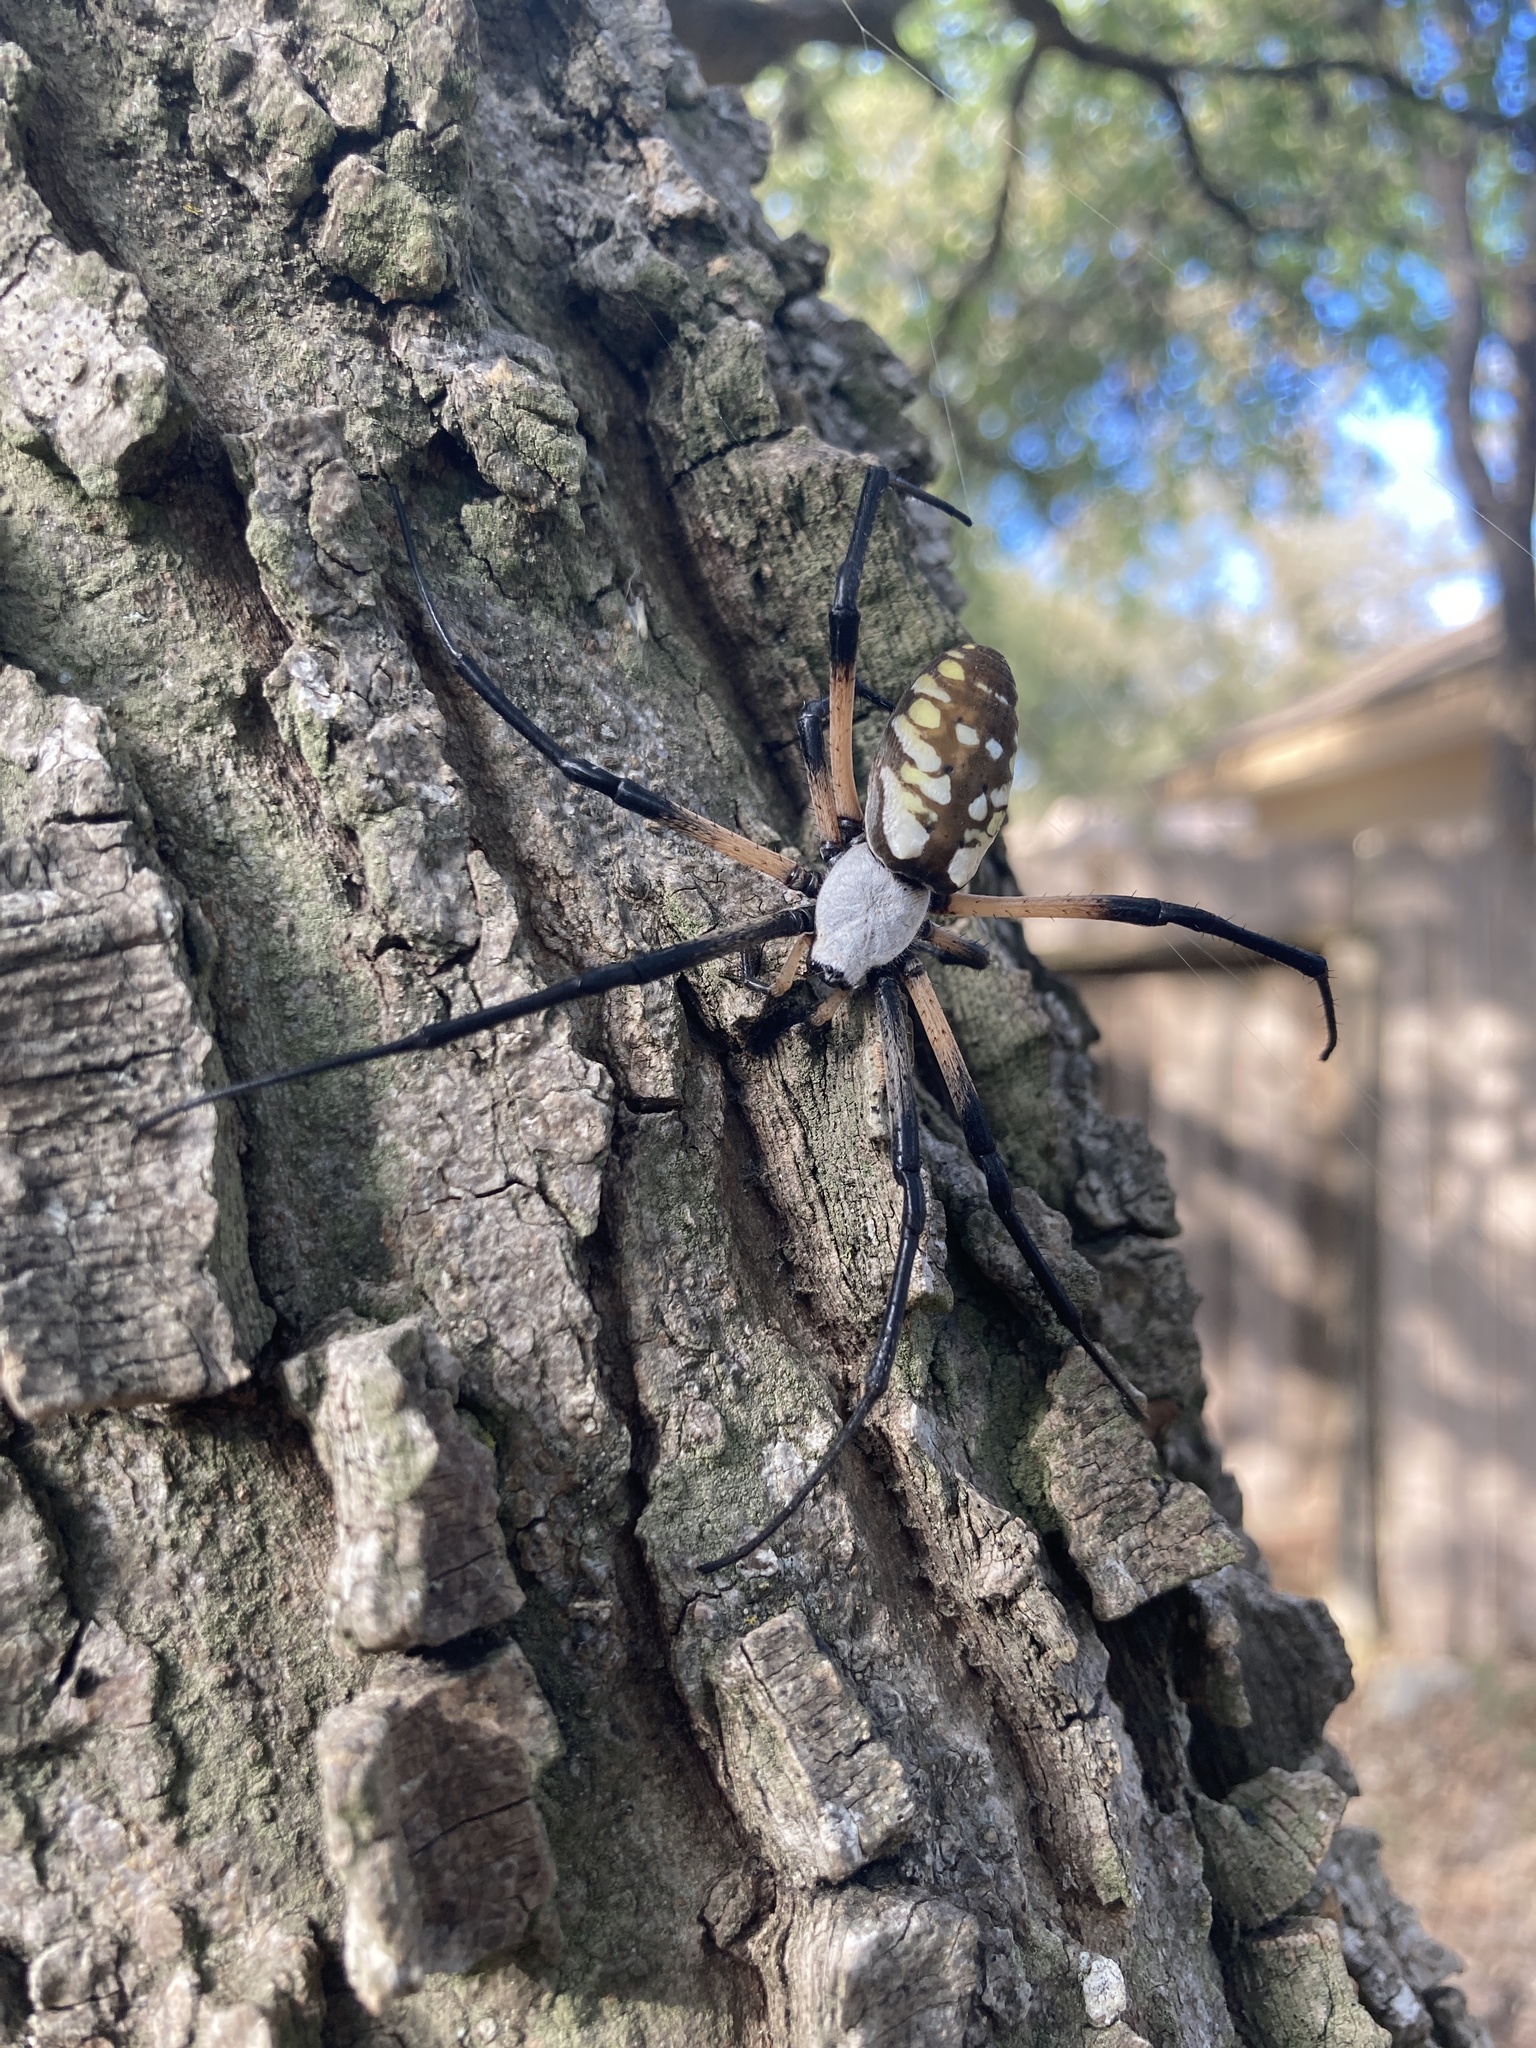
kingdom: Animalia
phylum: Arthropoda
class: Arachnida
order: Araneae
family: Araneidae
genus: Argiope
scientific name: Argiope aurantia
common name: Orb weavers
